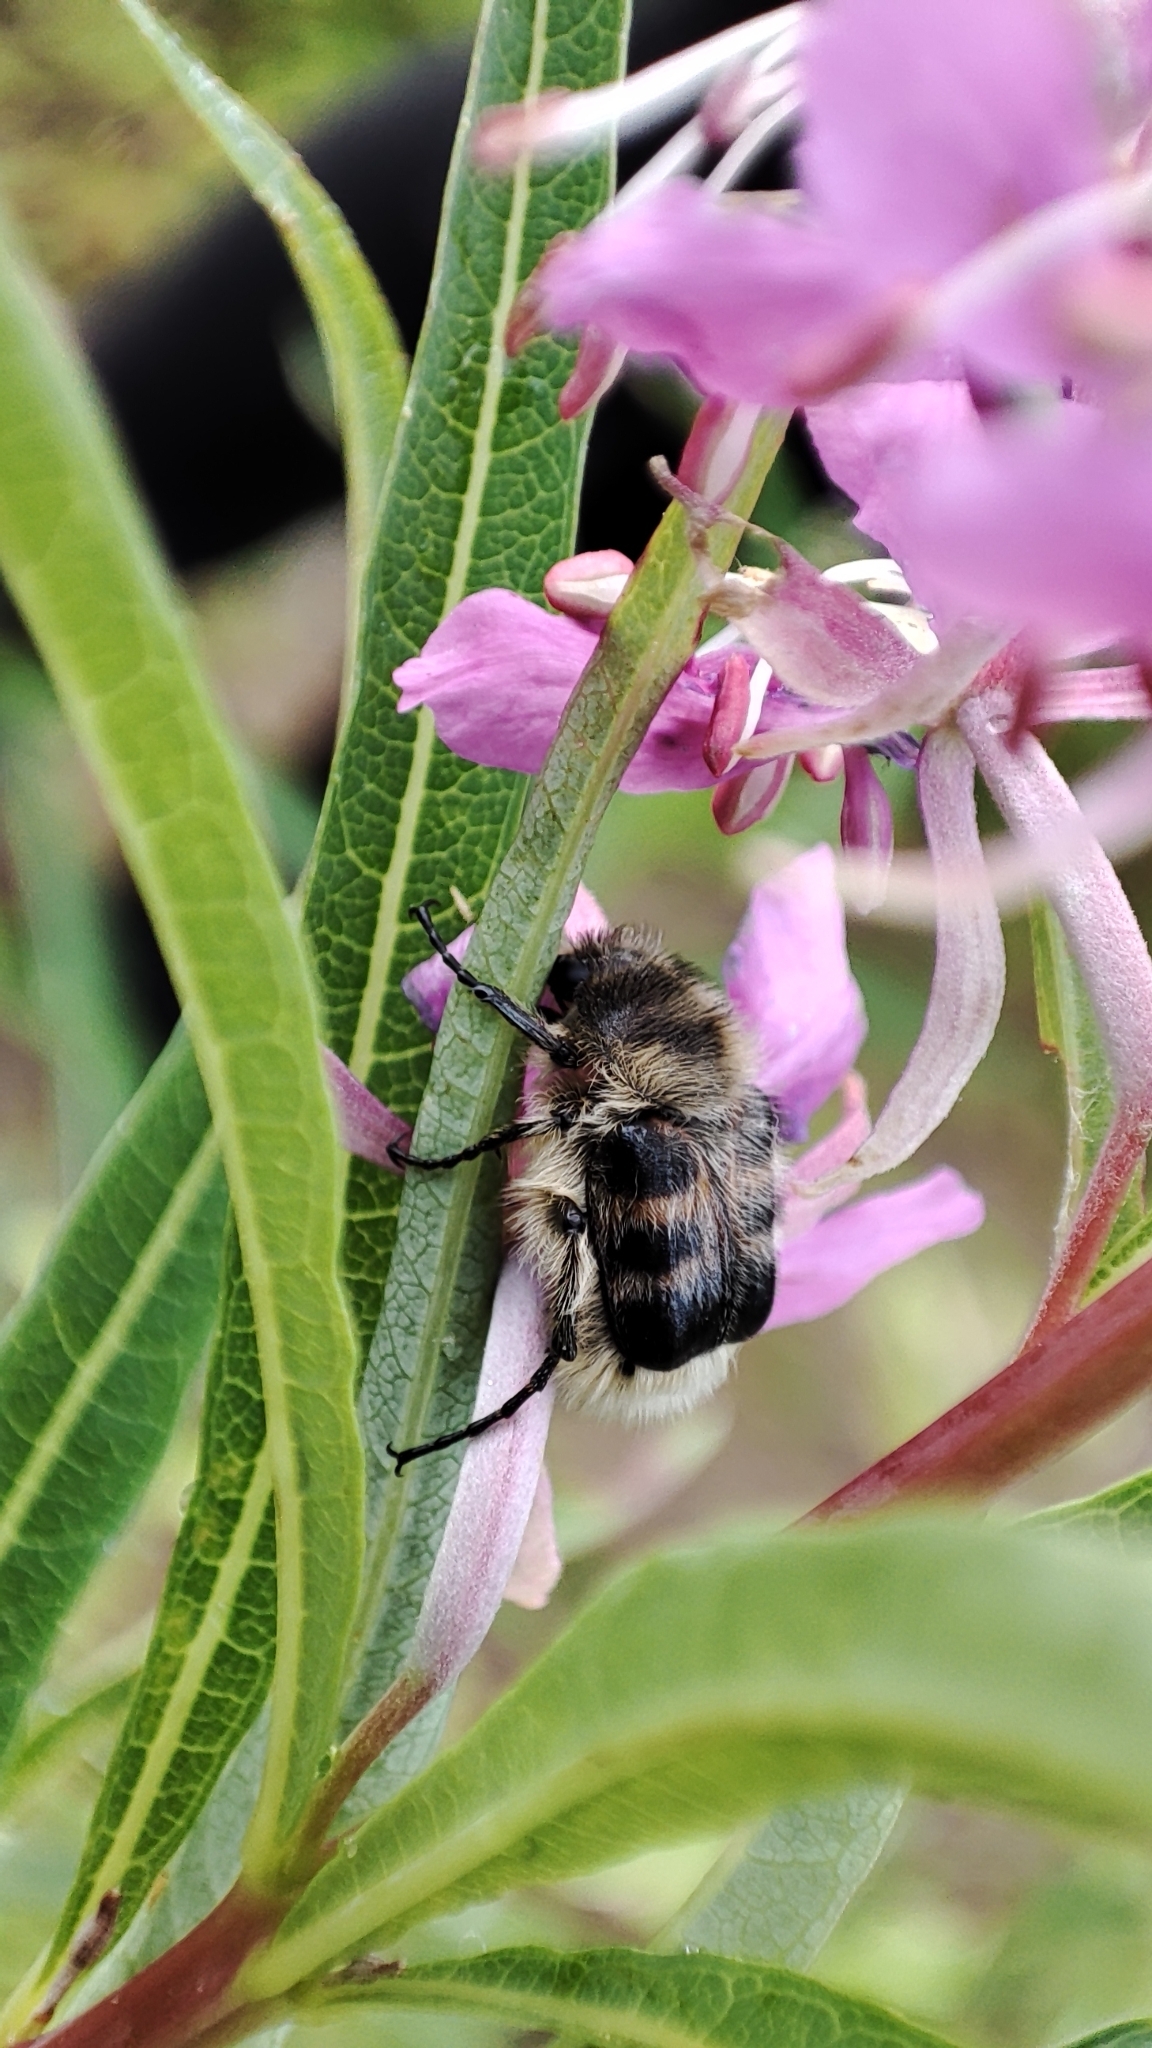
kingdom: Animalia
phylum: Arthropoda
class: Insecta
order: Coleoptera
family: Scarabaeidae
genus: Lasiotrichius
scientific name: Lasiotrichius succinctus
